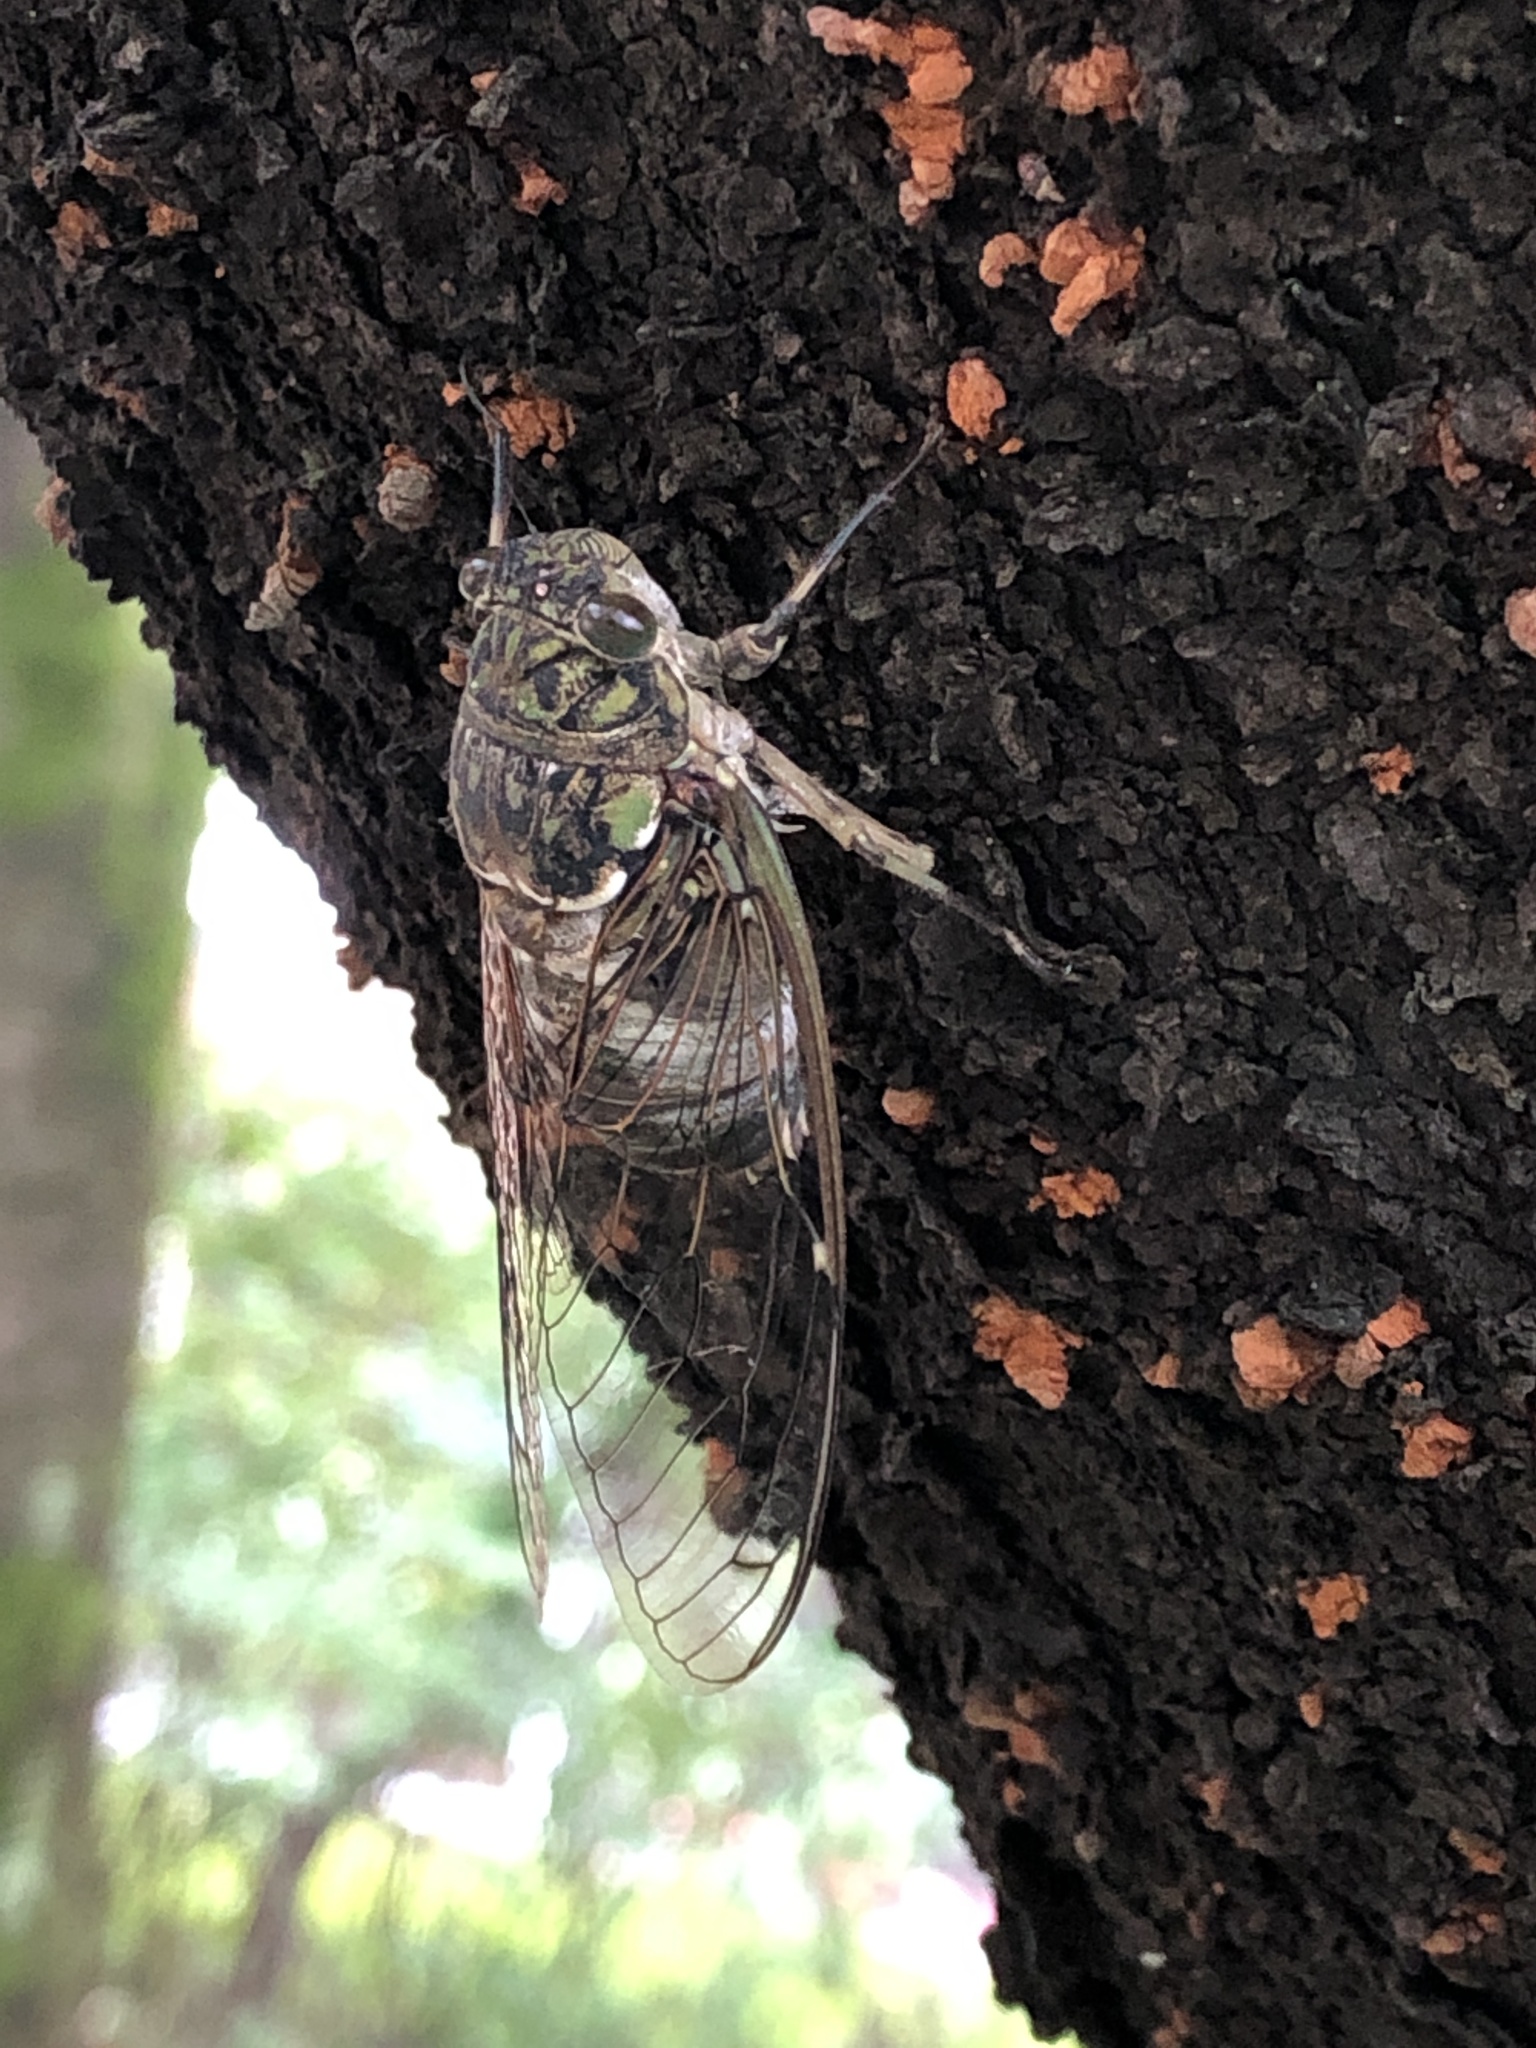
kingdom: Animalia
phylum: Arthropoda
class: Insecta
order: Hemiptera
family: Cicadidae
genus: Hyalessa
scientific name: Hyalessa maculaticollis
